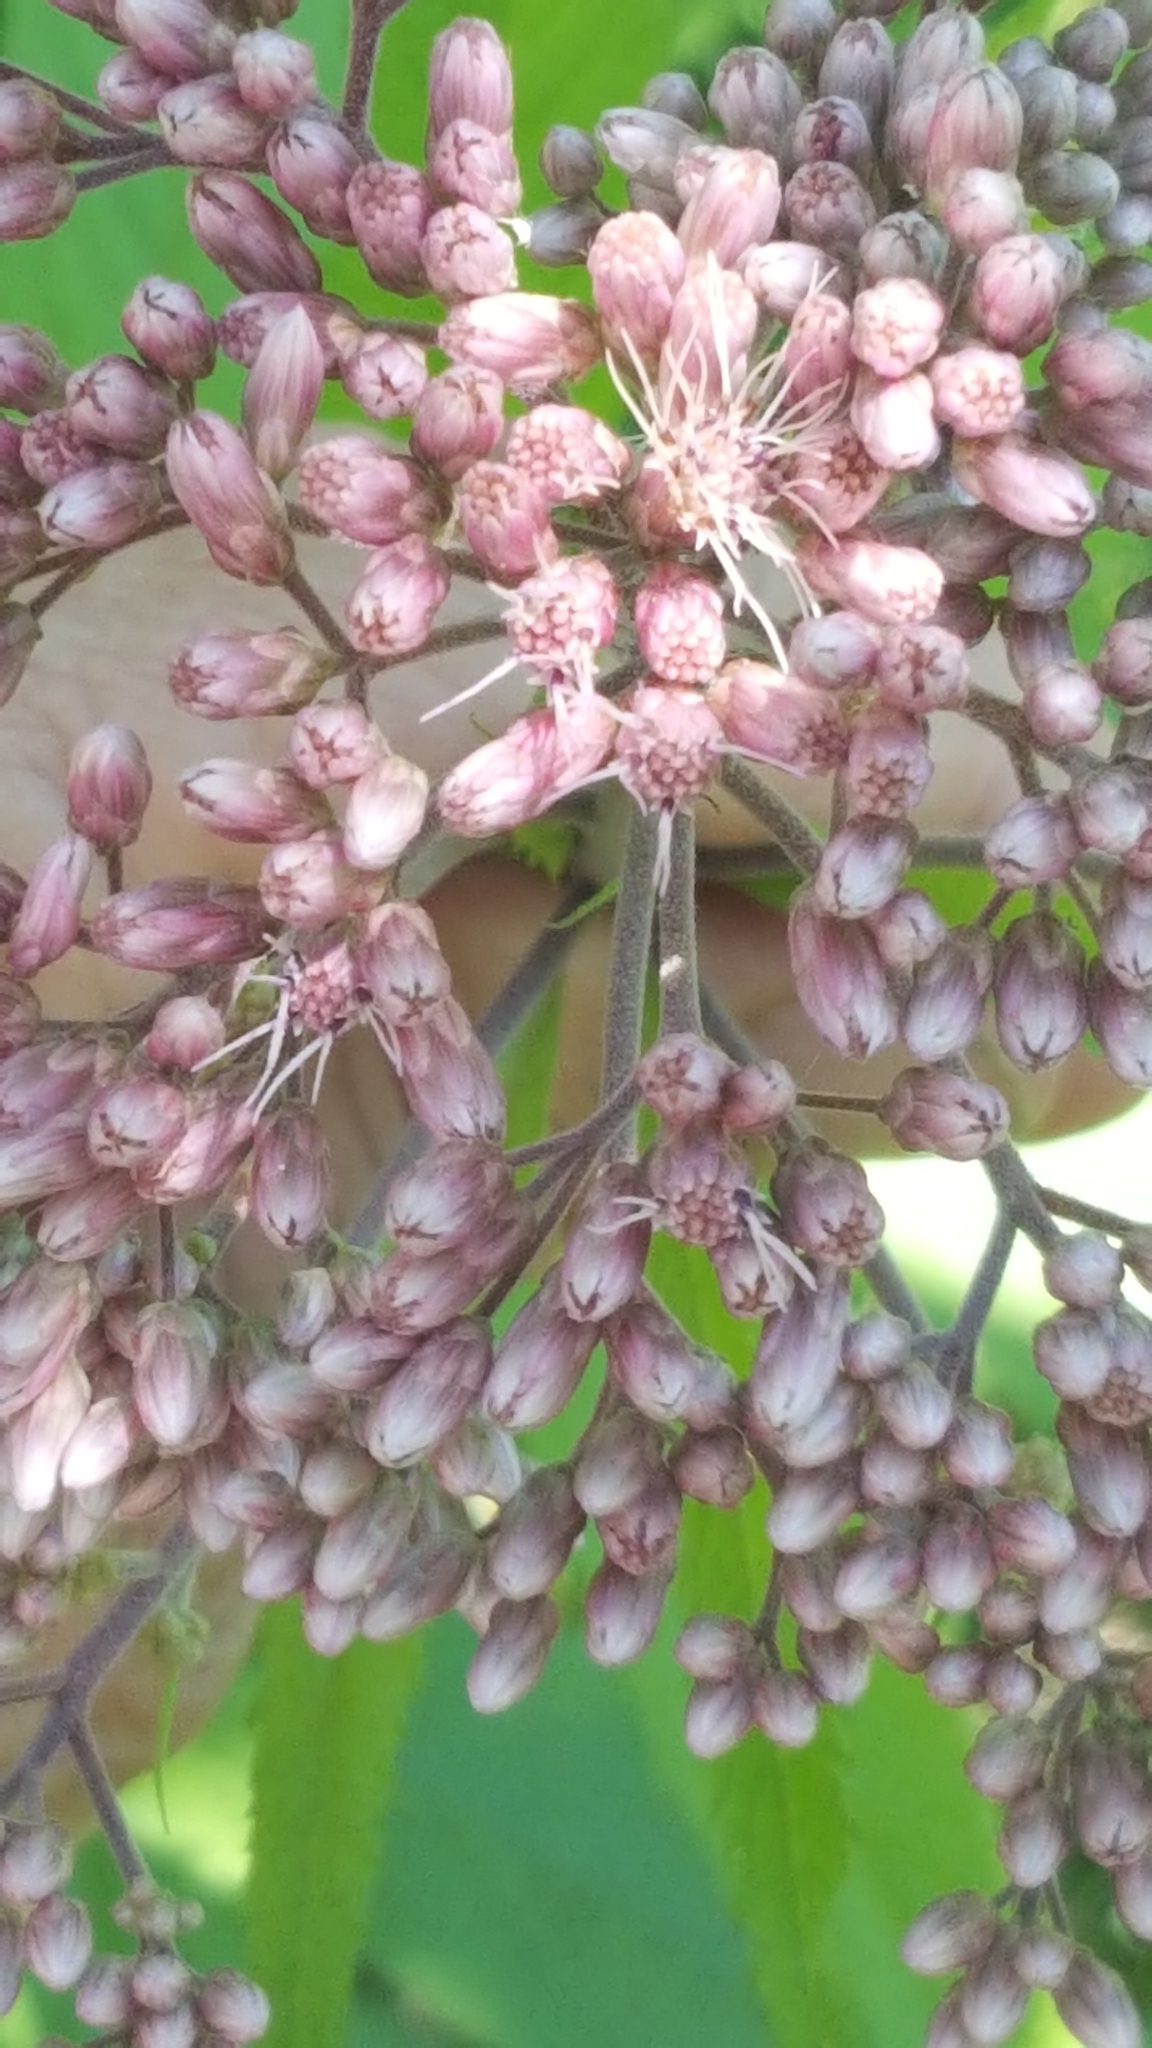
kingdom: Plantae
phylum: Tracheophyta
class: Magnoliopsida
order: Asterales
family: Asteraceae
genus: Eutrochium
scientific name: Eutrochium maculatum
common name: Spotted joe pye weed
